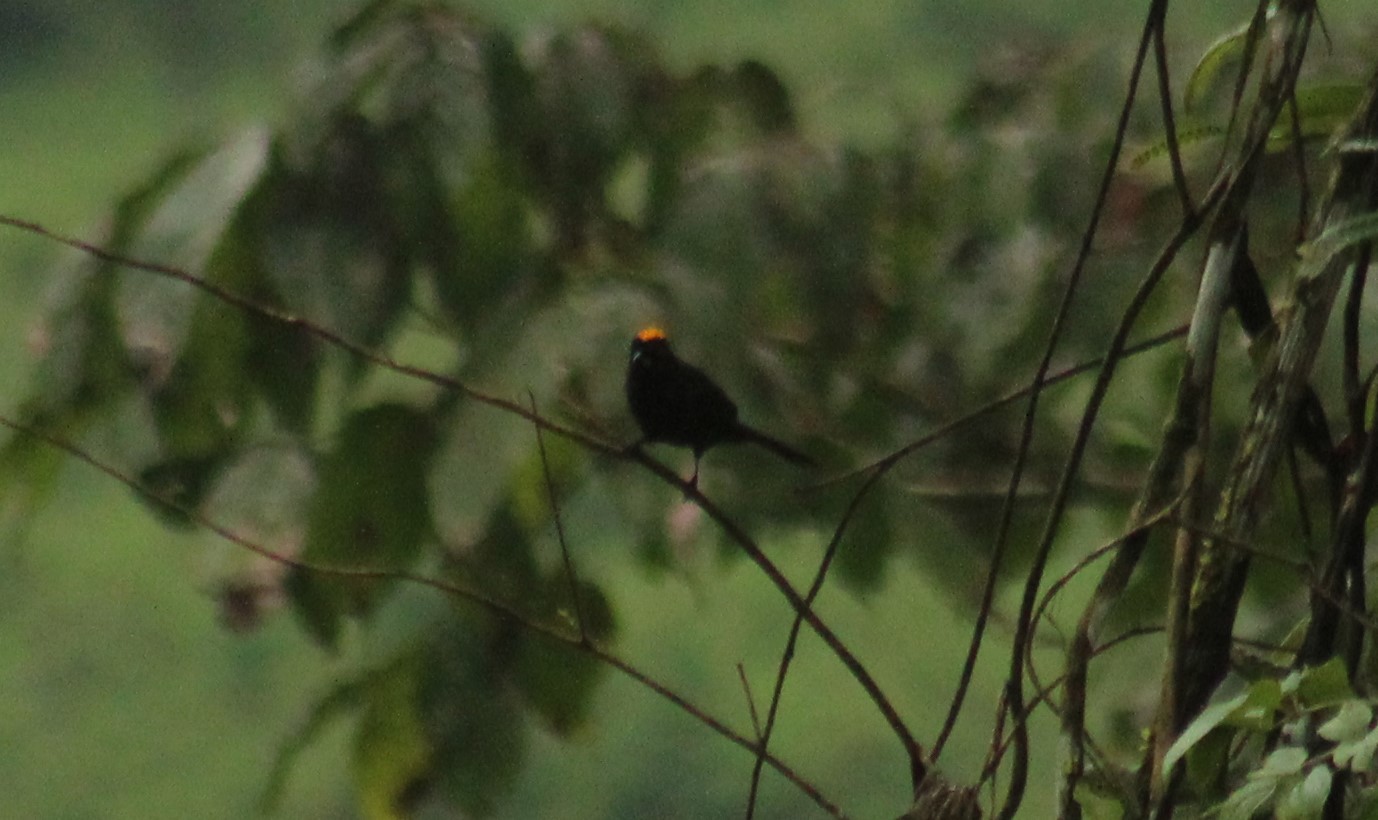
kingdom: Animalia
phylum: Chordata
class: Aves
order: Passeriformes
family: Thraupidae
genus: Tachyphonus
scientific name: Tachyphonus delatrii
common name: Tawny-crested tanager
